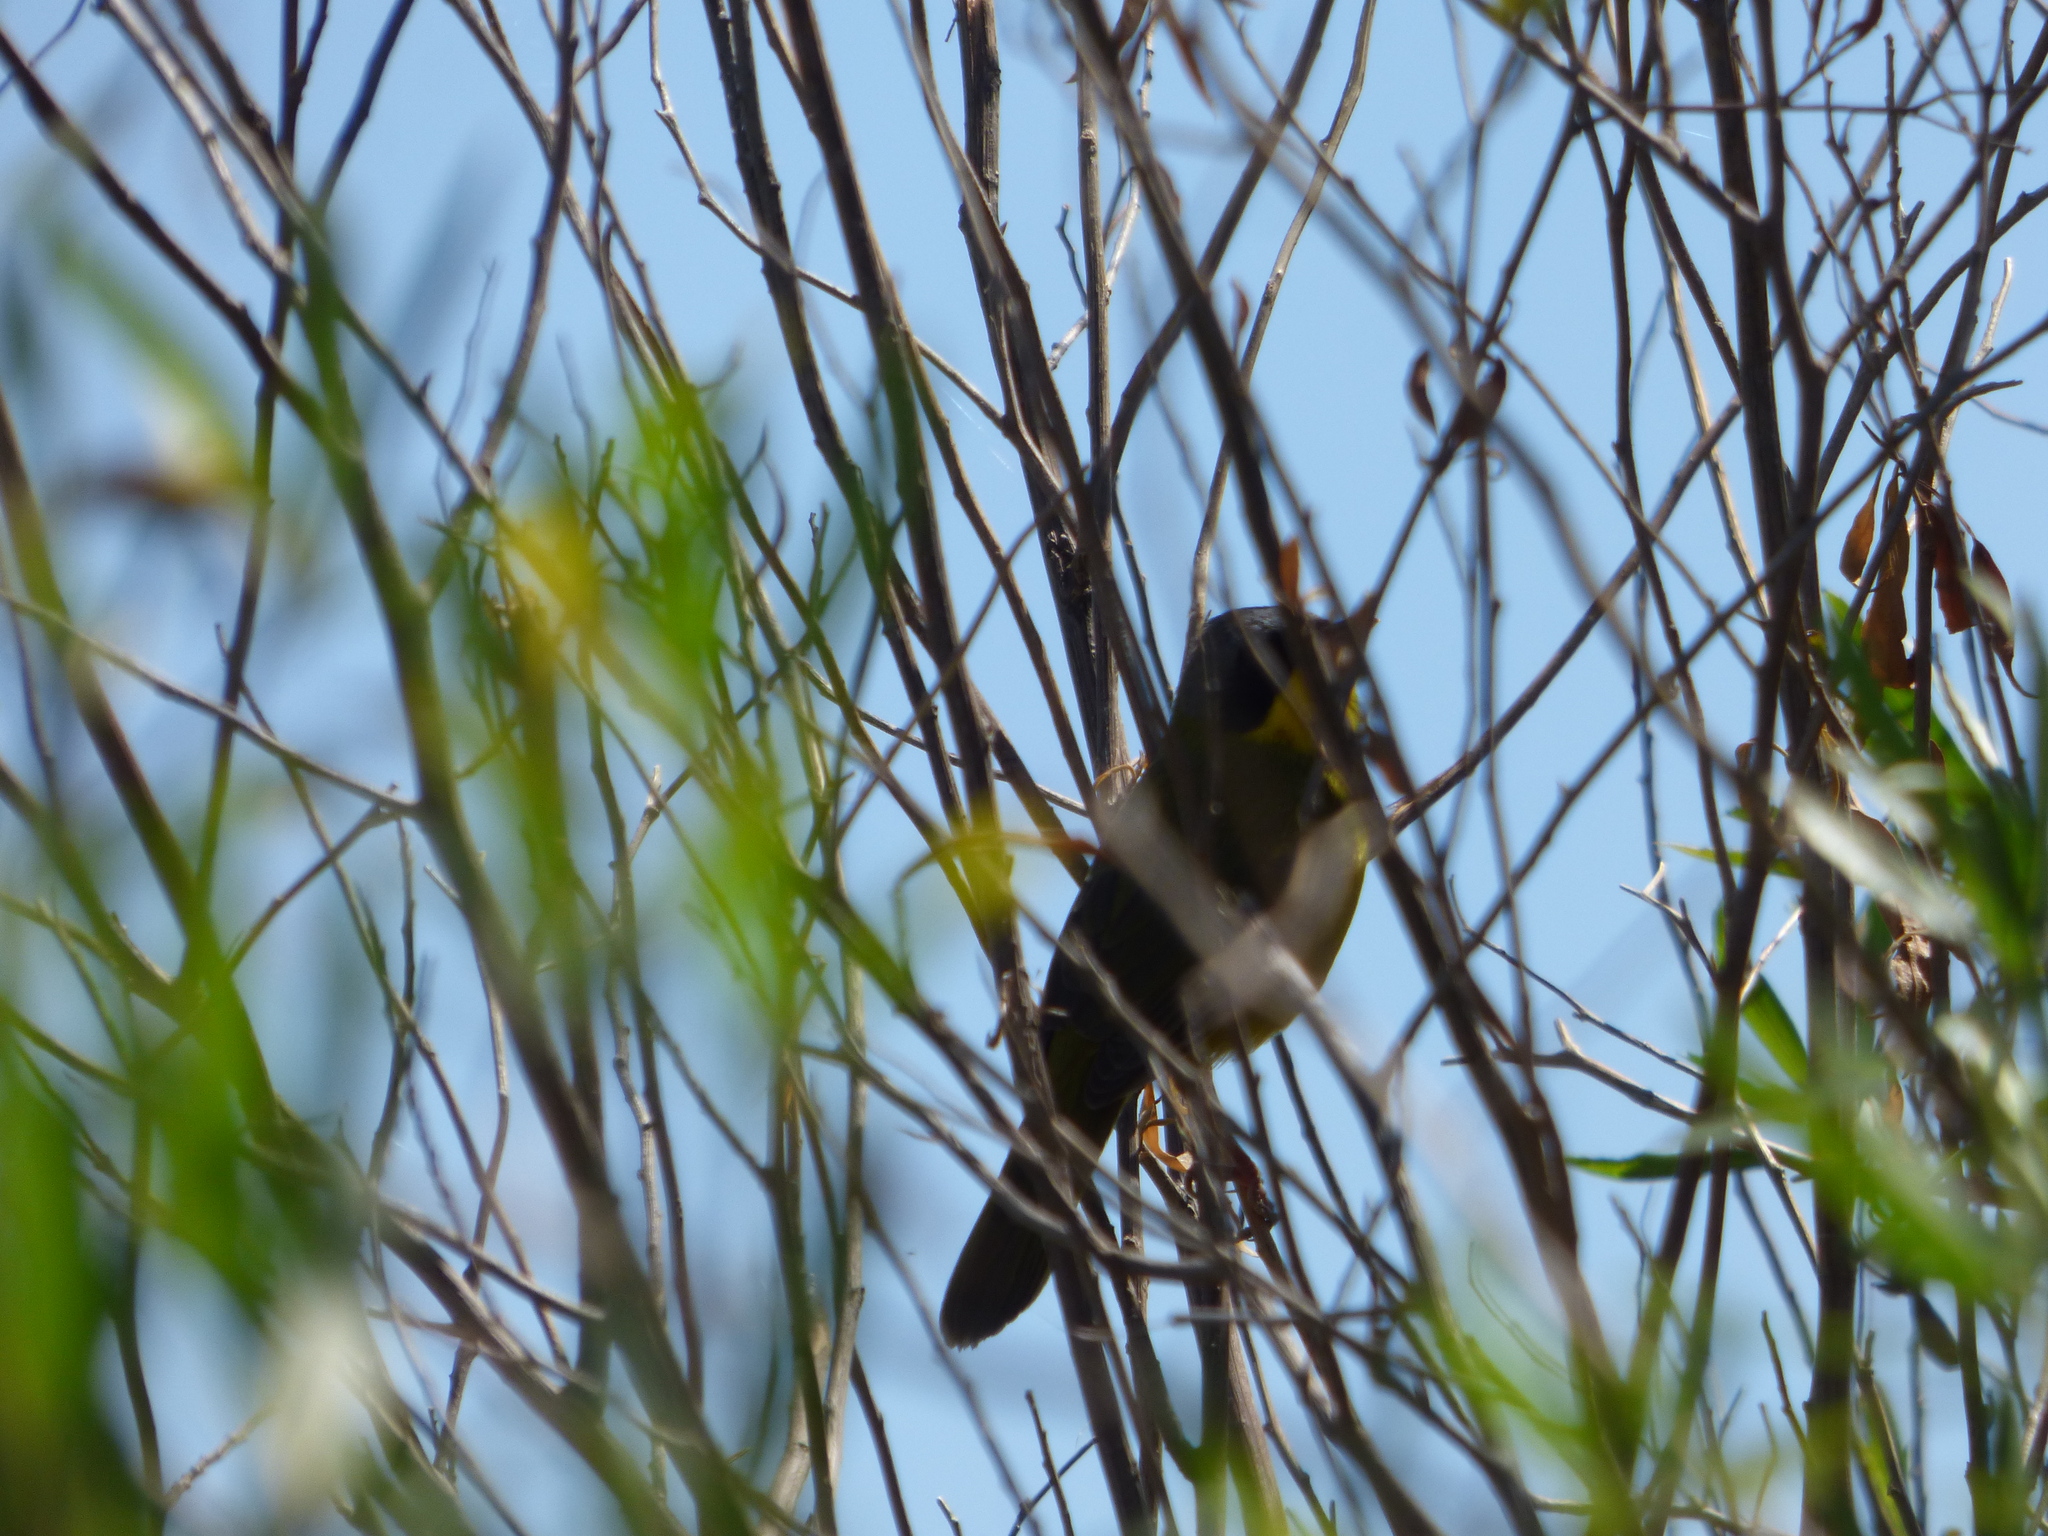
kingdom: Animalia
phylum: Chordata
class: Aves
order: Passeriformes
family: Parulidae
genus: Geothlypis
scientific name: Geothlypis velata
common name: Southern yellowthroat
